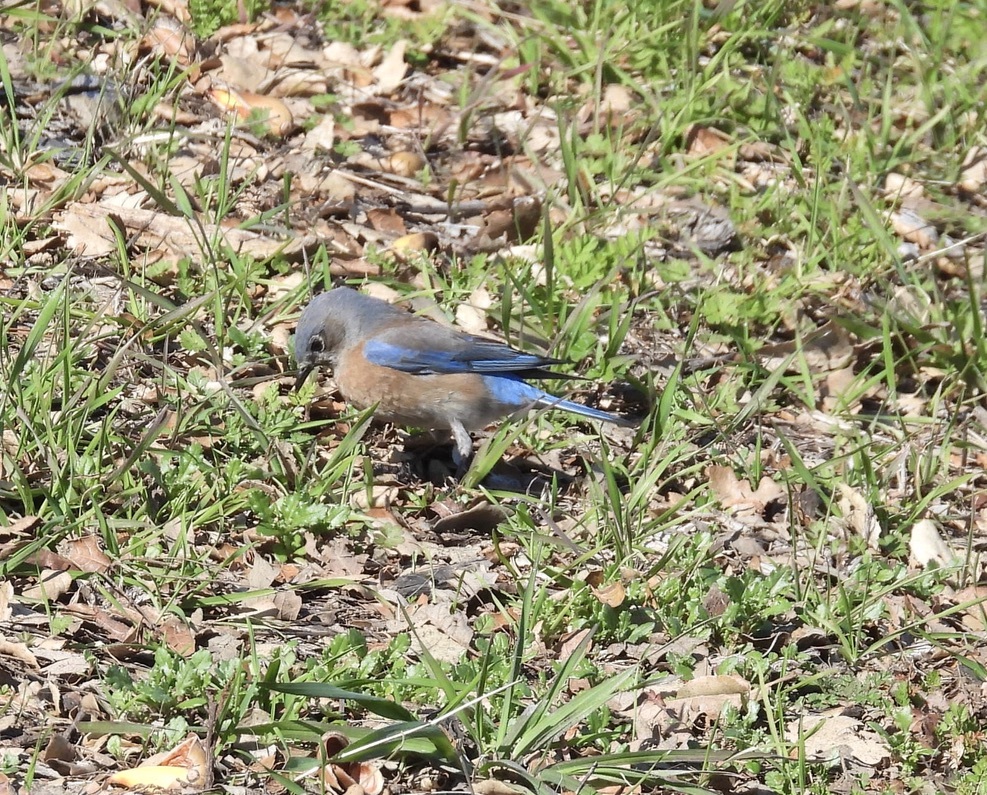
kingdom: Animalia
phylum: Chordata
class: Aves
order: Passeriformes
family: Turdidae
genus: Sialia
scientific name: Sialia mexicana
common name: Western bluebird
